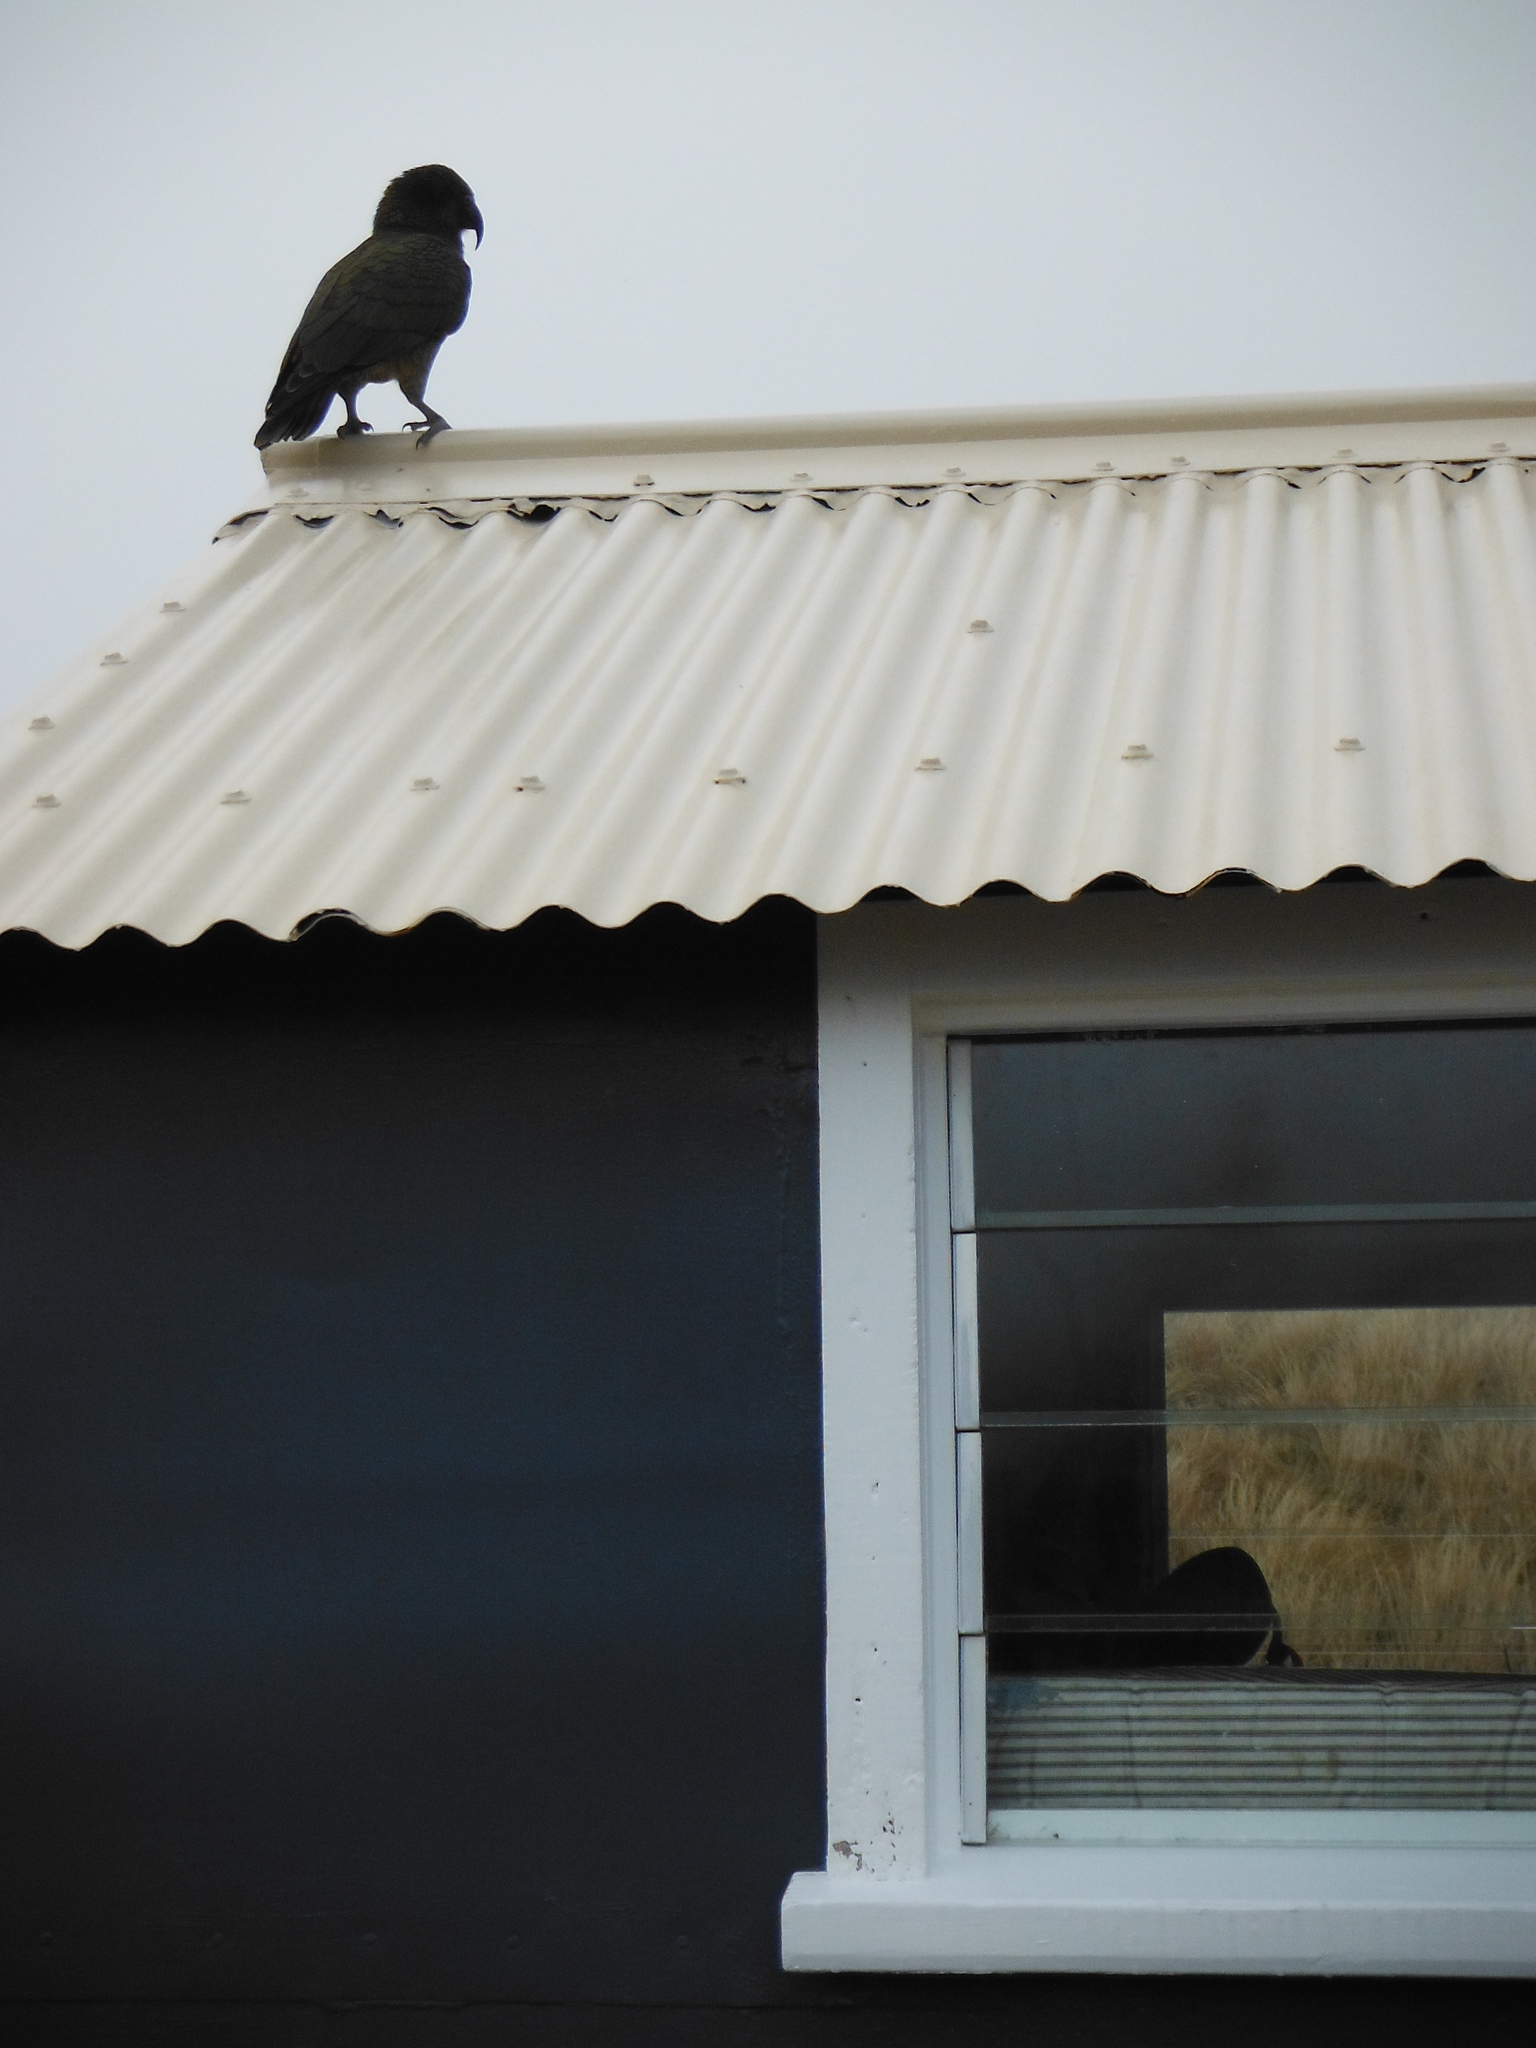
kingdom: Animalia
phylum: Chordata
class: Aves
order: Psittaciformes
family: Psittacidae
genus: Nestor
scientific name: Nestor notabilis
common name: Kea
